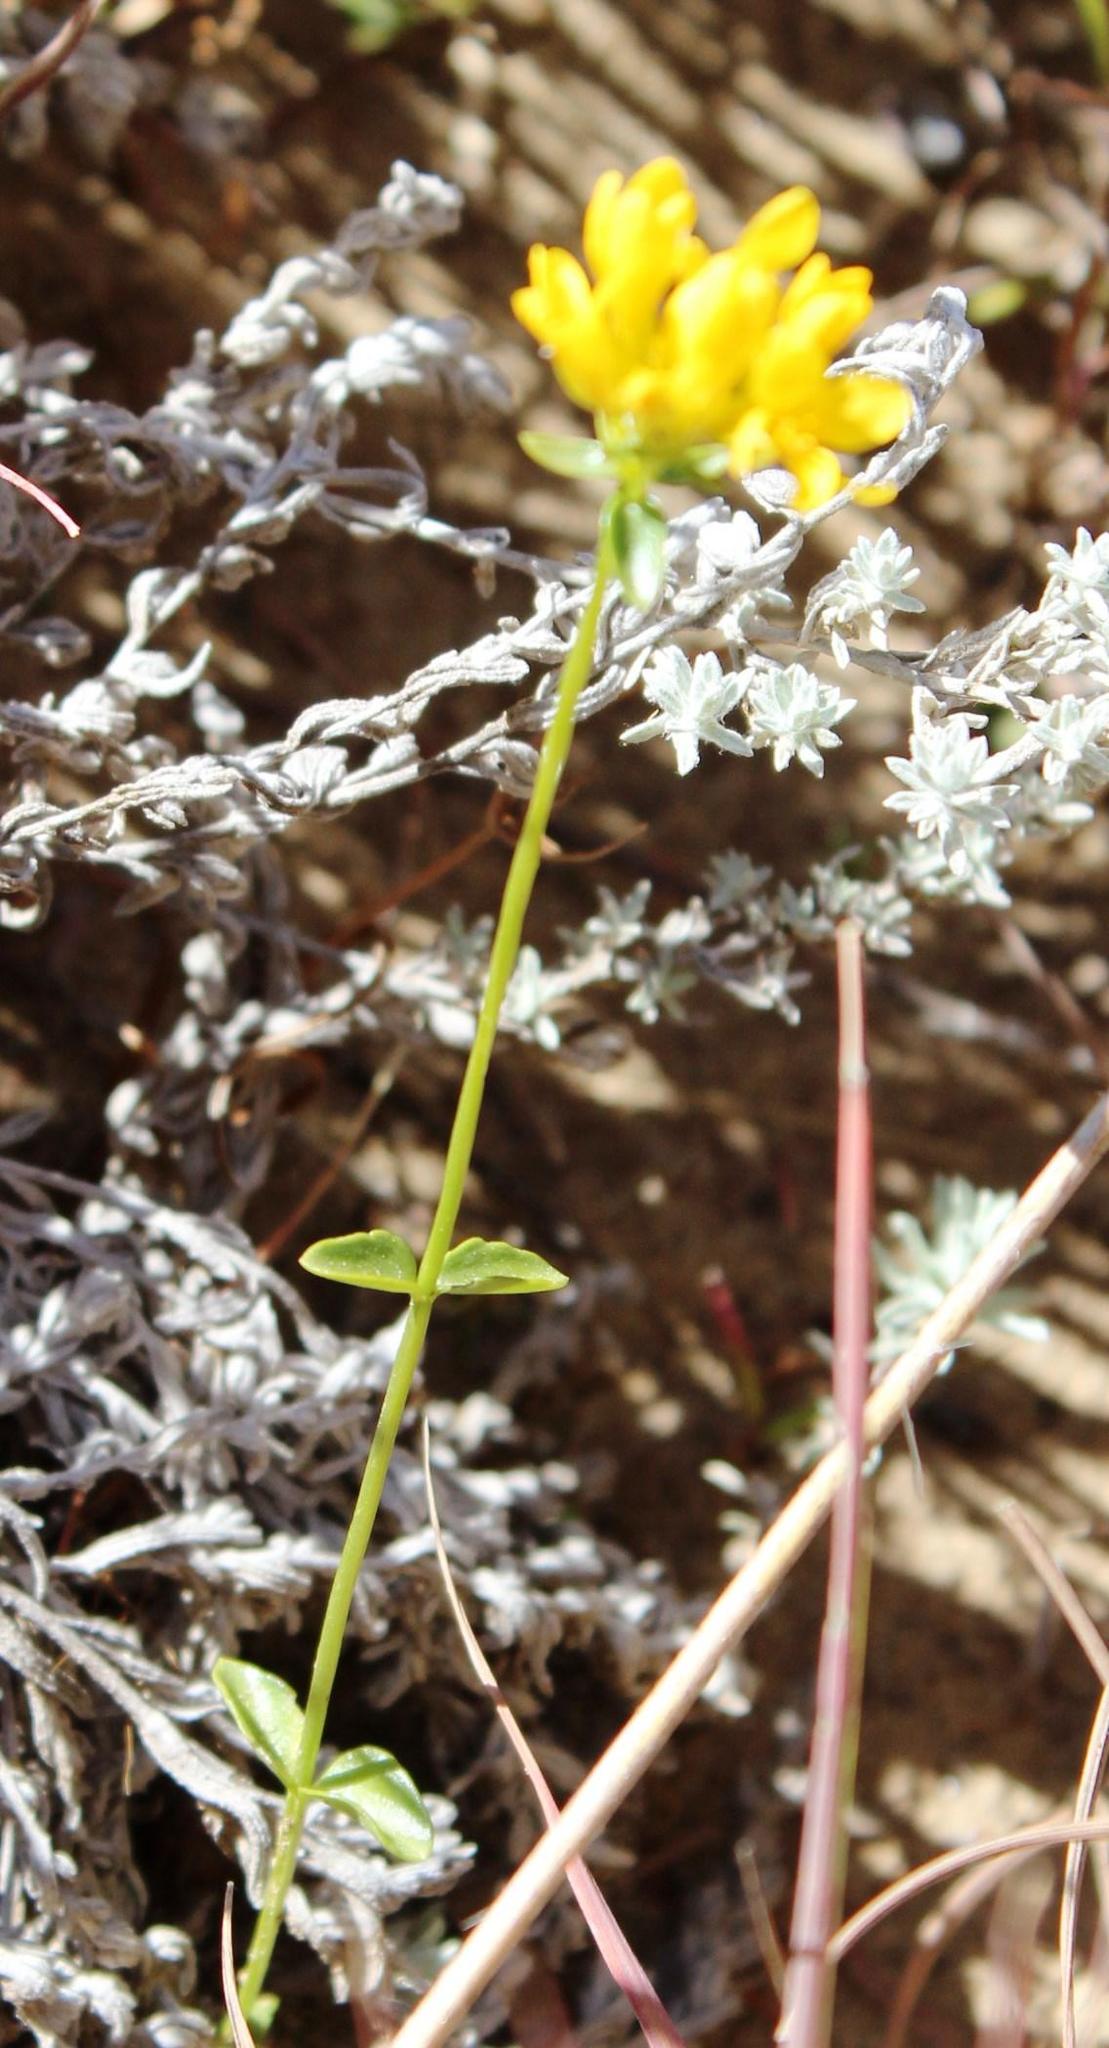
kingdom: Plantae
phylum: Tracheophyta
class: Magnoliopsida
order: Gentianales
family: Gentianaceae
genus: Sebaea
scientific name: Sebaea natalensis
